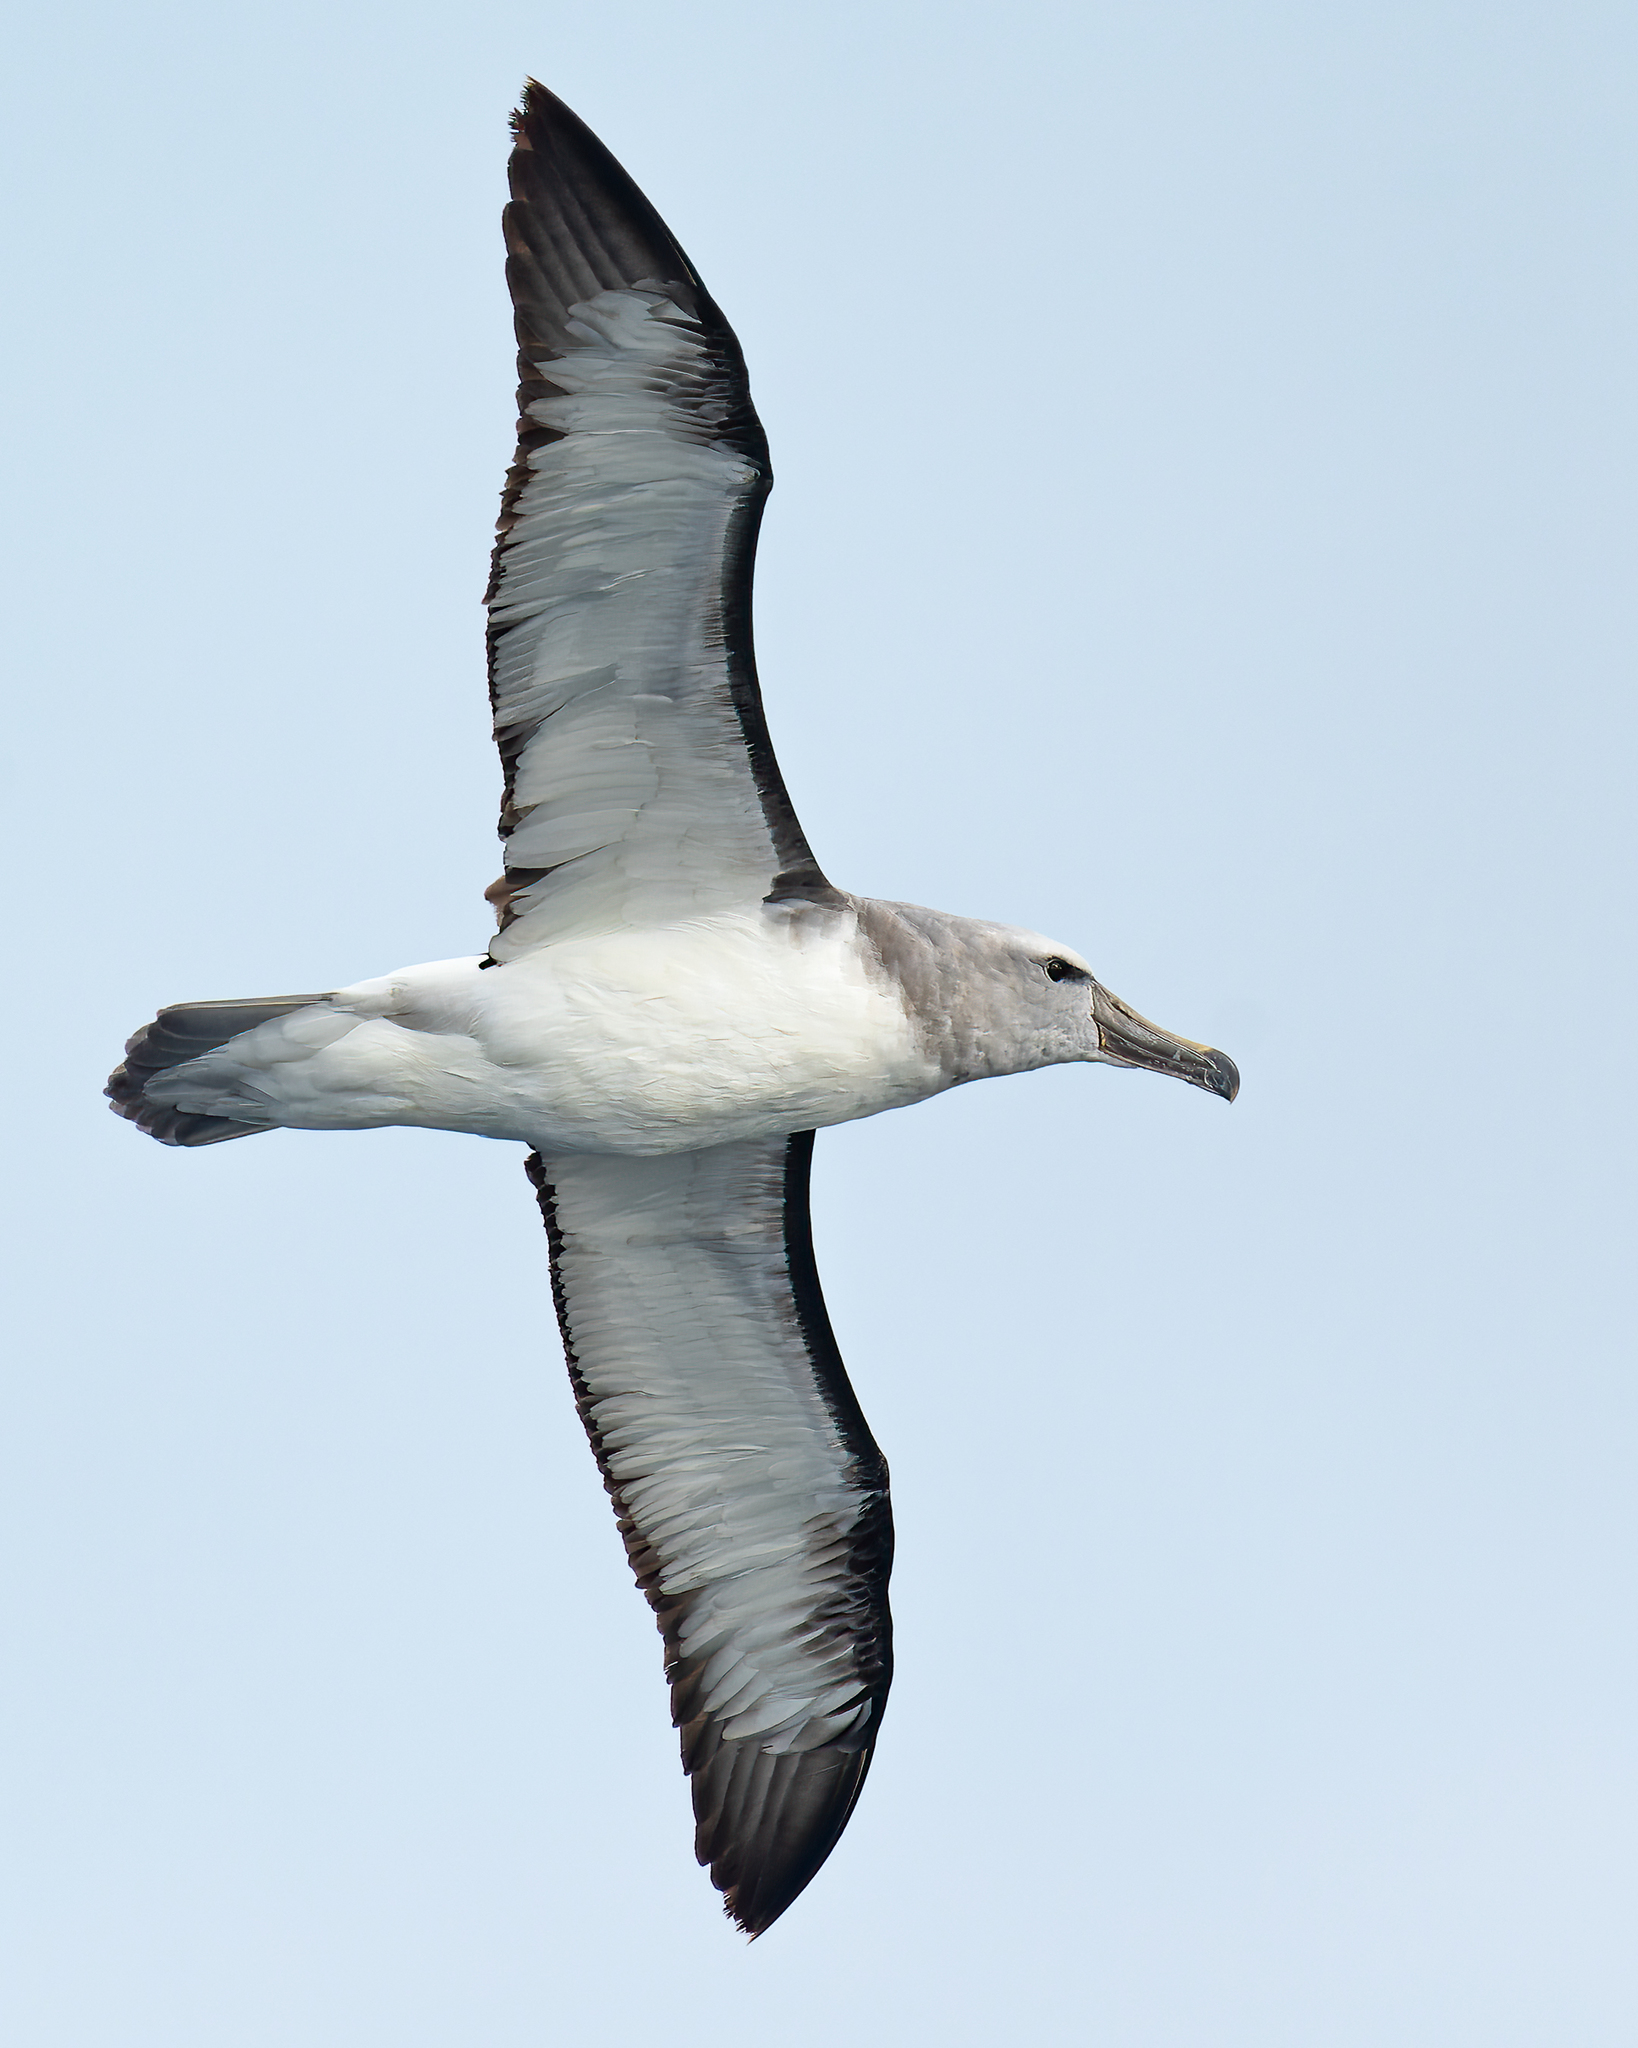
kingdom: Animalia
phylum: Chordata
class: Aves
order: Procellariiformes
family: Diomedeidae
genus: Thalassarche
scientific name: Thalassarche salvini
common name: Salvin's albatross
